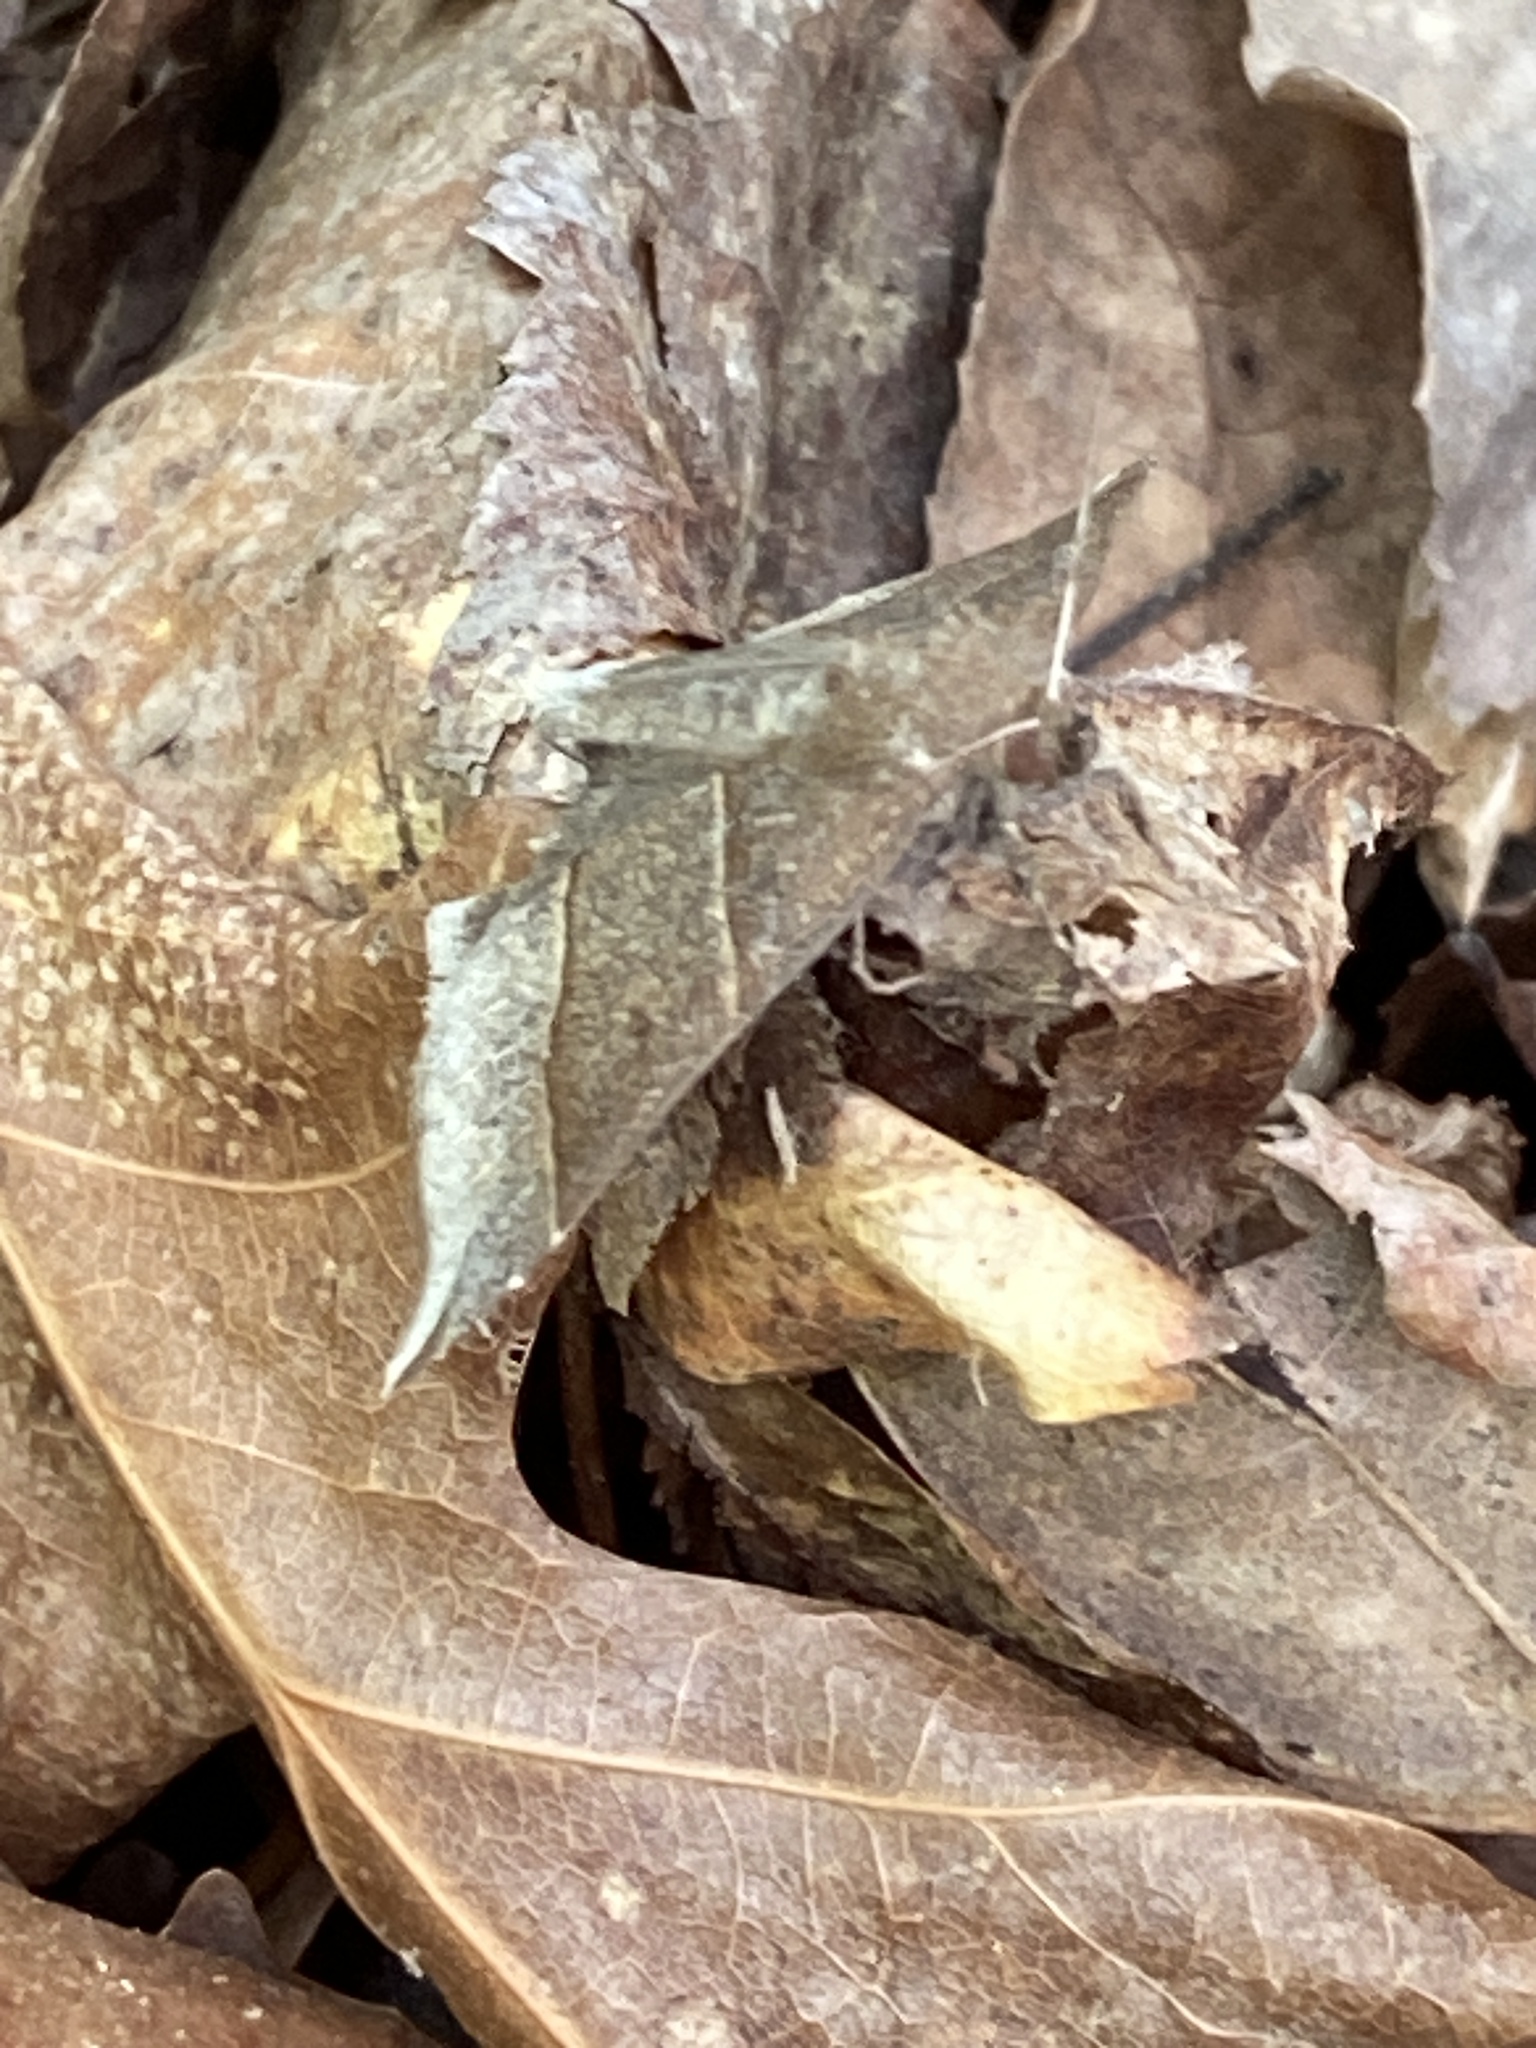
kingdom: Animalia
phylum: Arthropoda
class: Insecta
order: Lepidoptera
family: Erebidae
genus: Parallelia
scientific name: Parallelia bistriaris
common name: Maple looper moth
